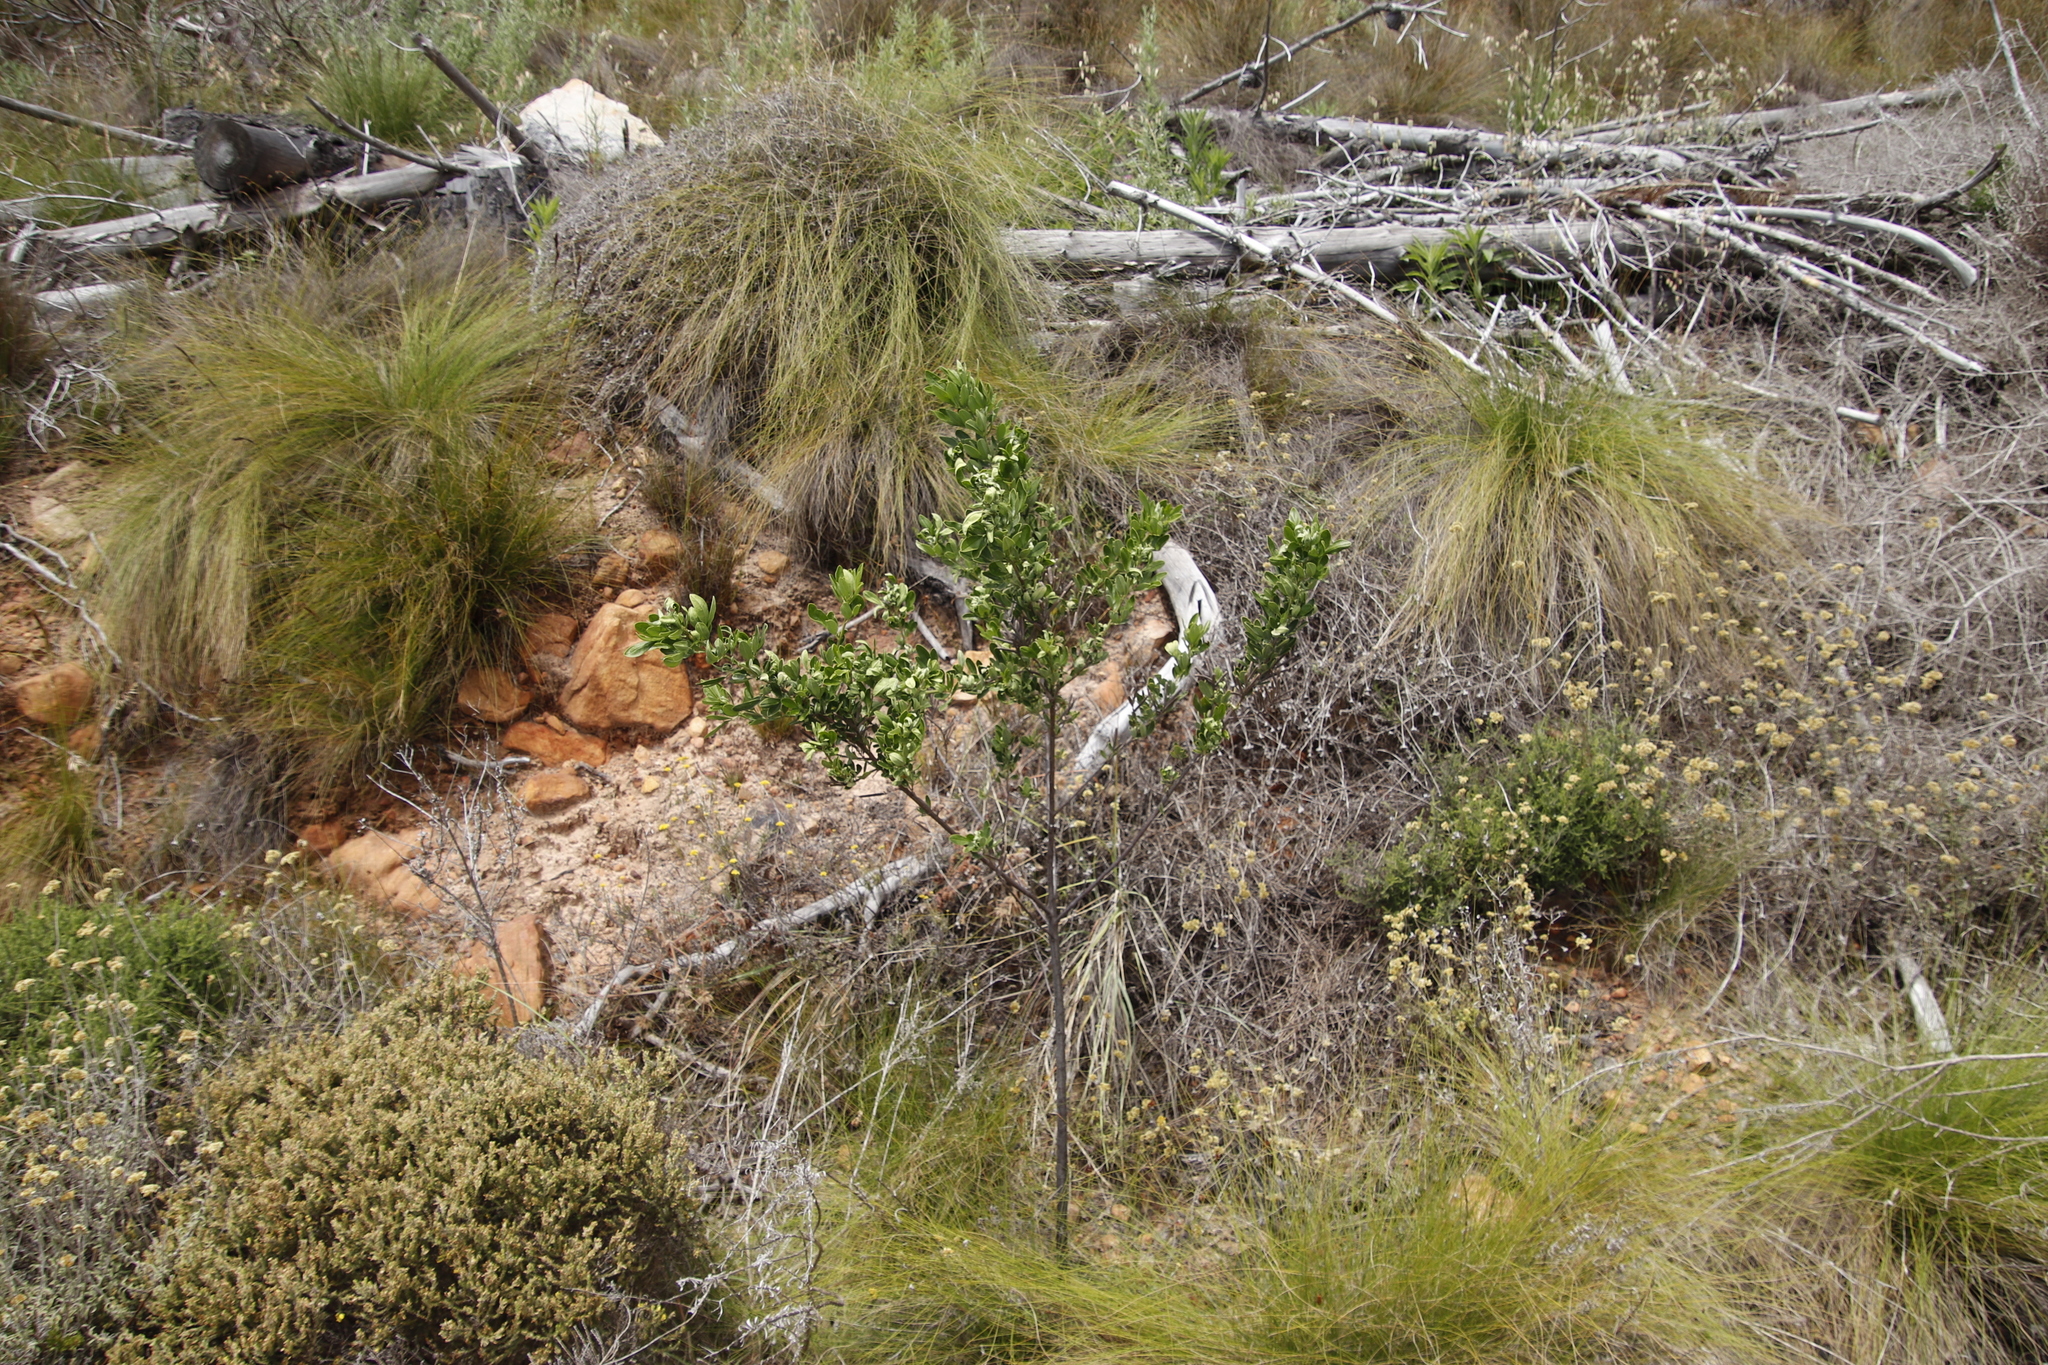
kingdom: Plantae
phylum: Tracheophyta
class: Magnoliopsida
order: Fabales
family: Fabaceae
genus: Indigofera
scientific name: Indigofera cytisoides
